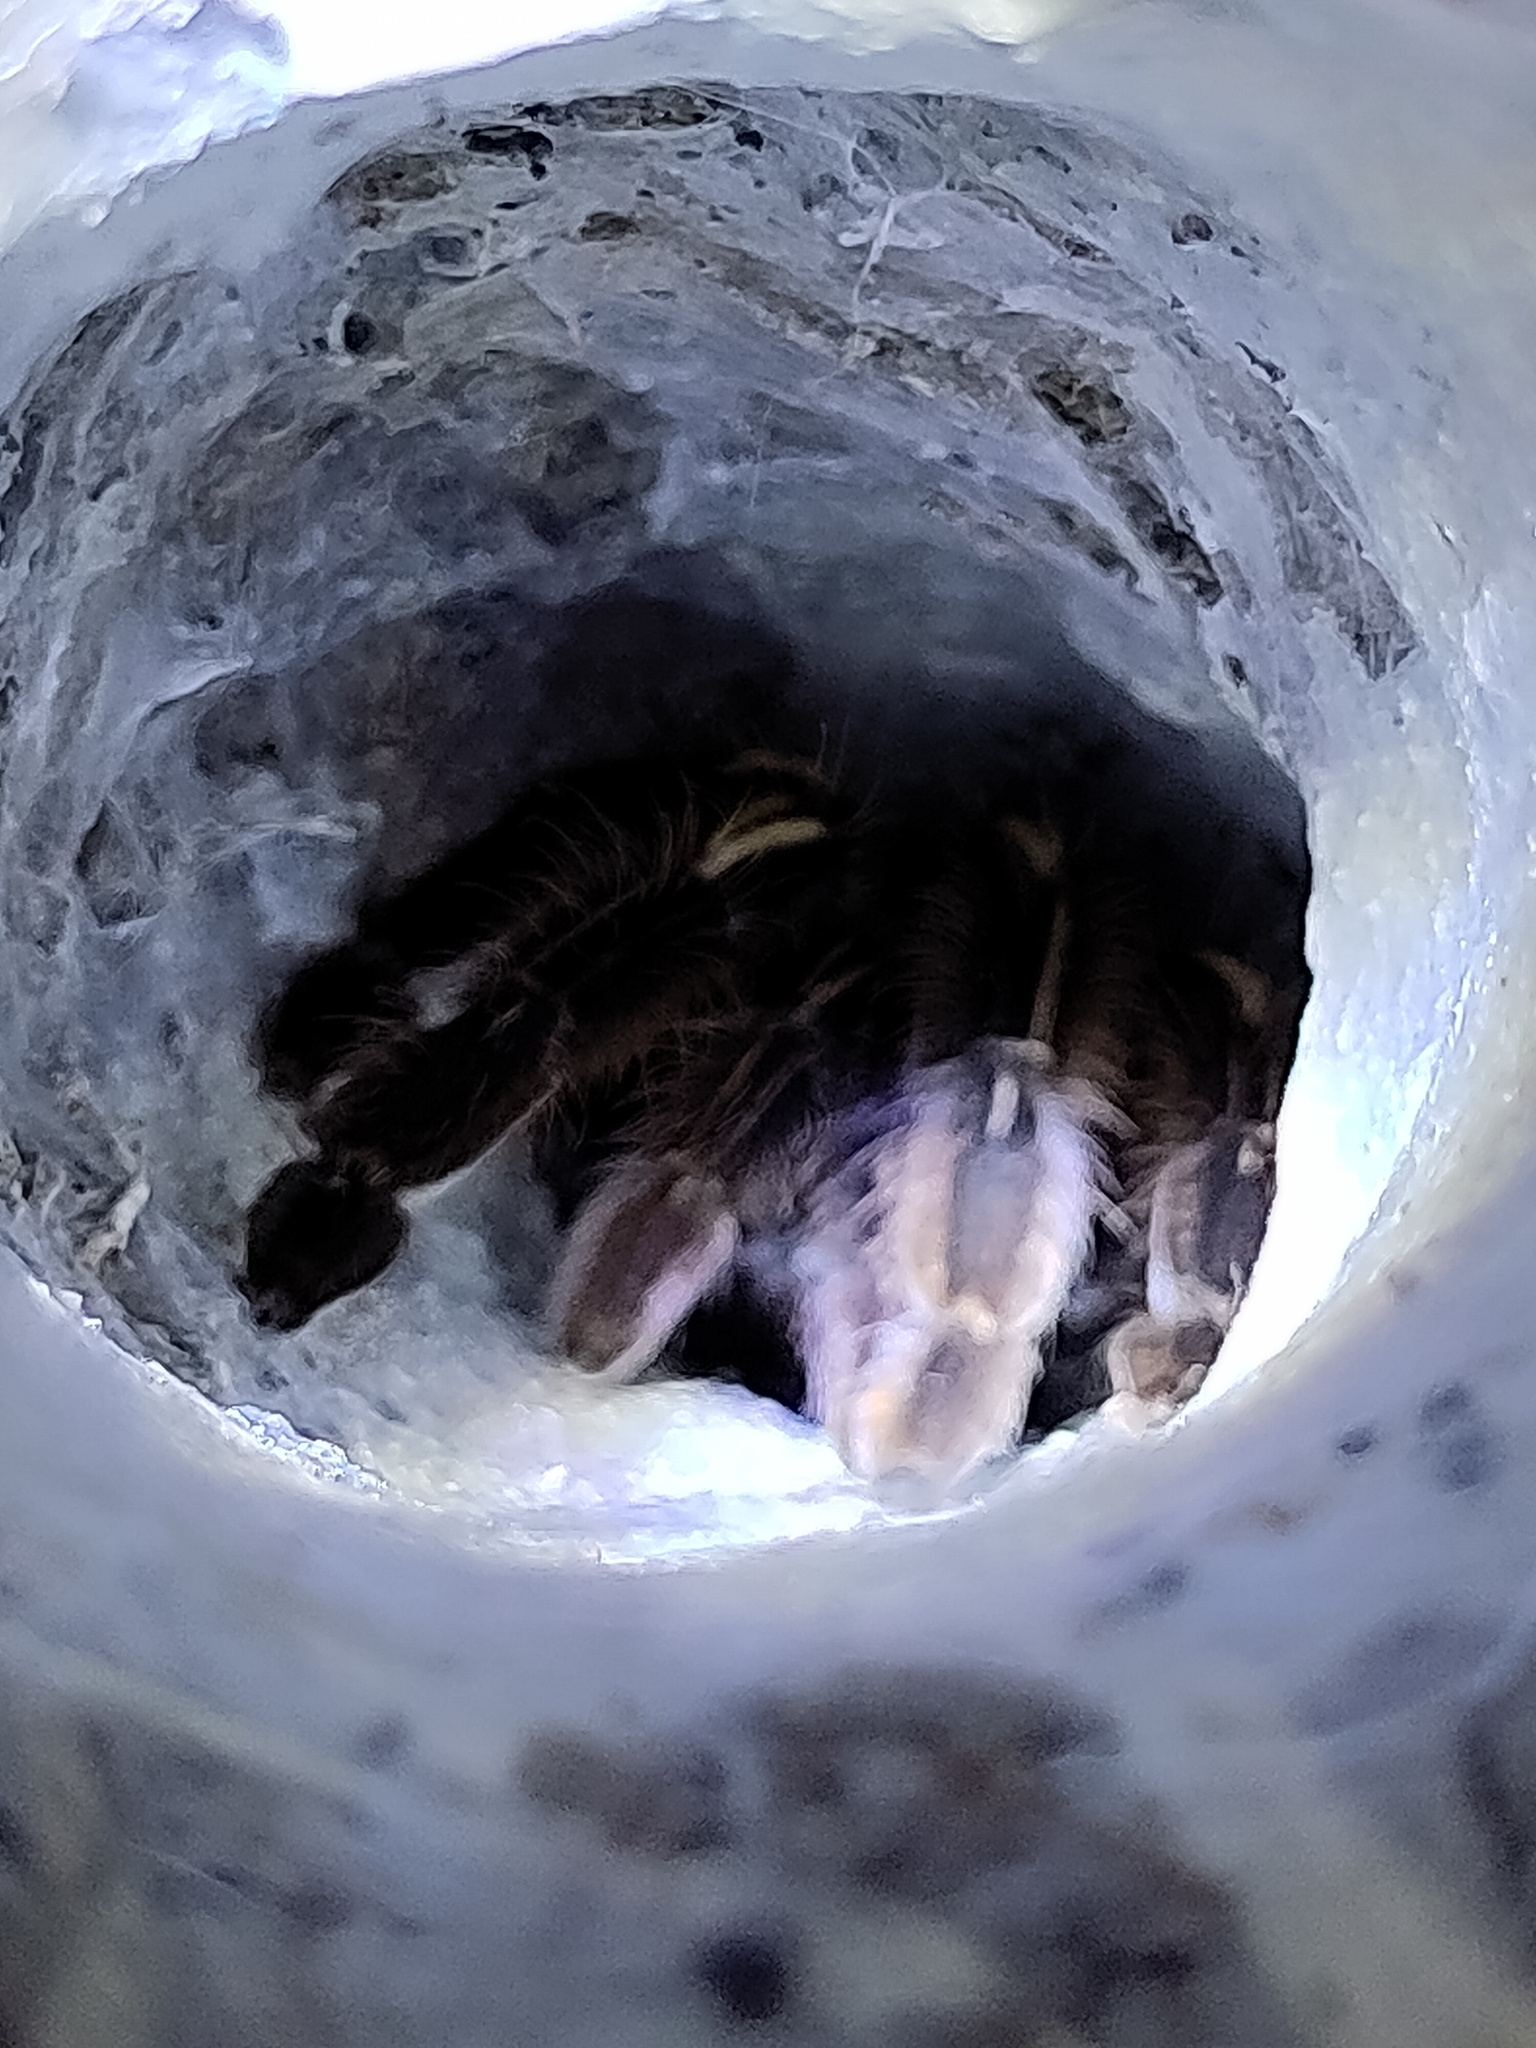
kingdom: Animalia
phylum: Arthropoda
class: Arachnida
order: Araneae
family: Theraphosidae
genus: Ephebopus
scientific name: Ephebopus murinus
